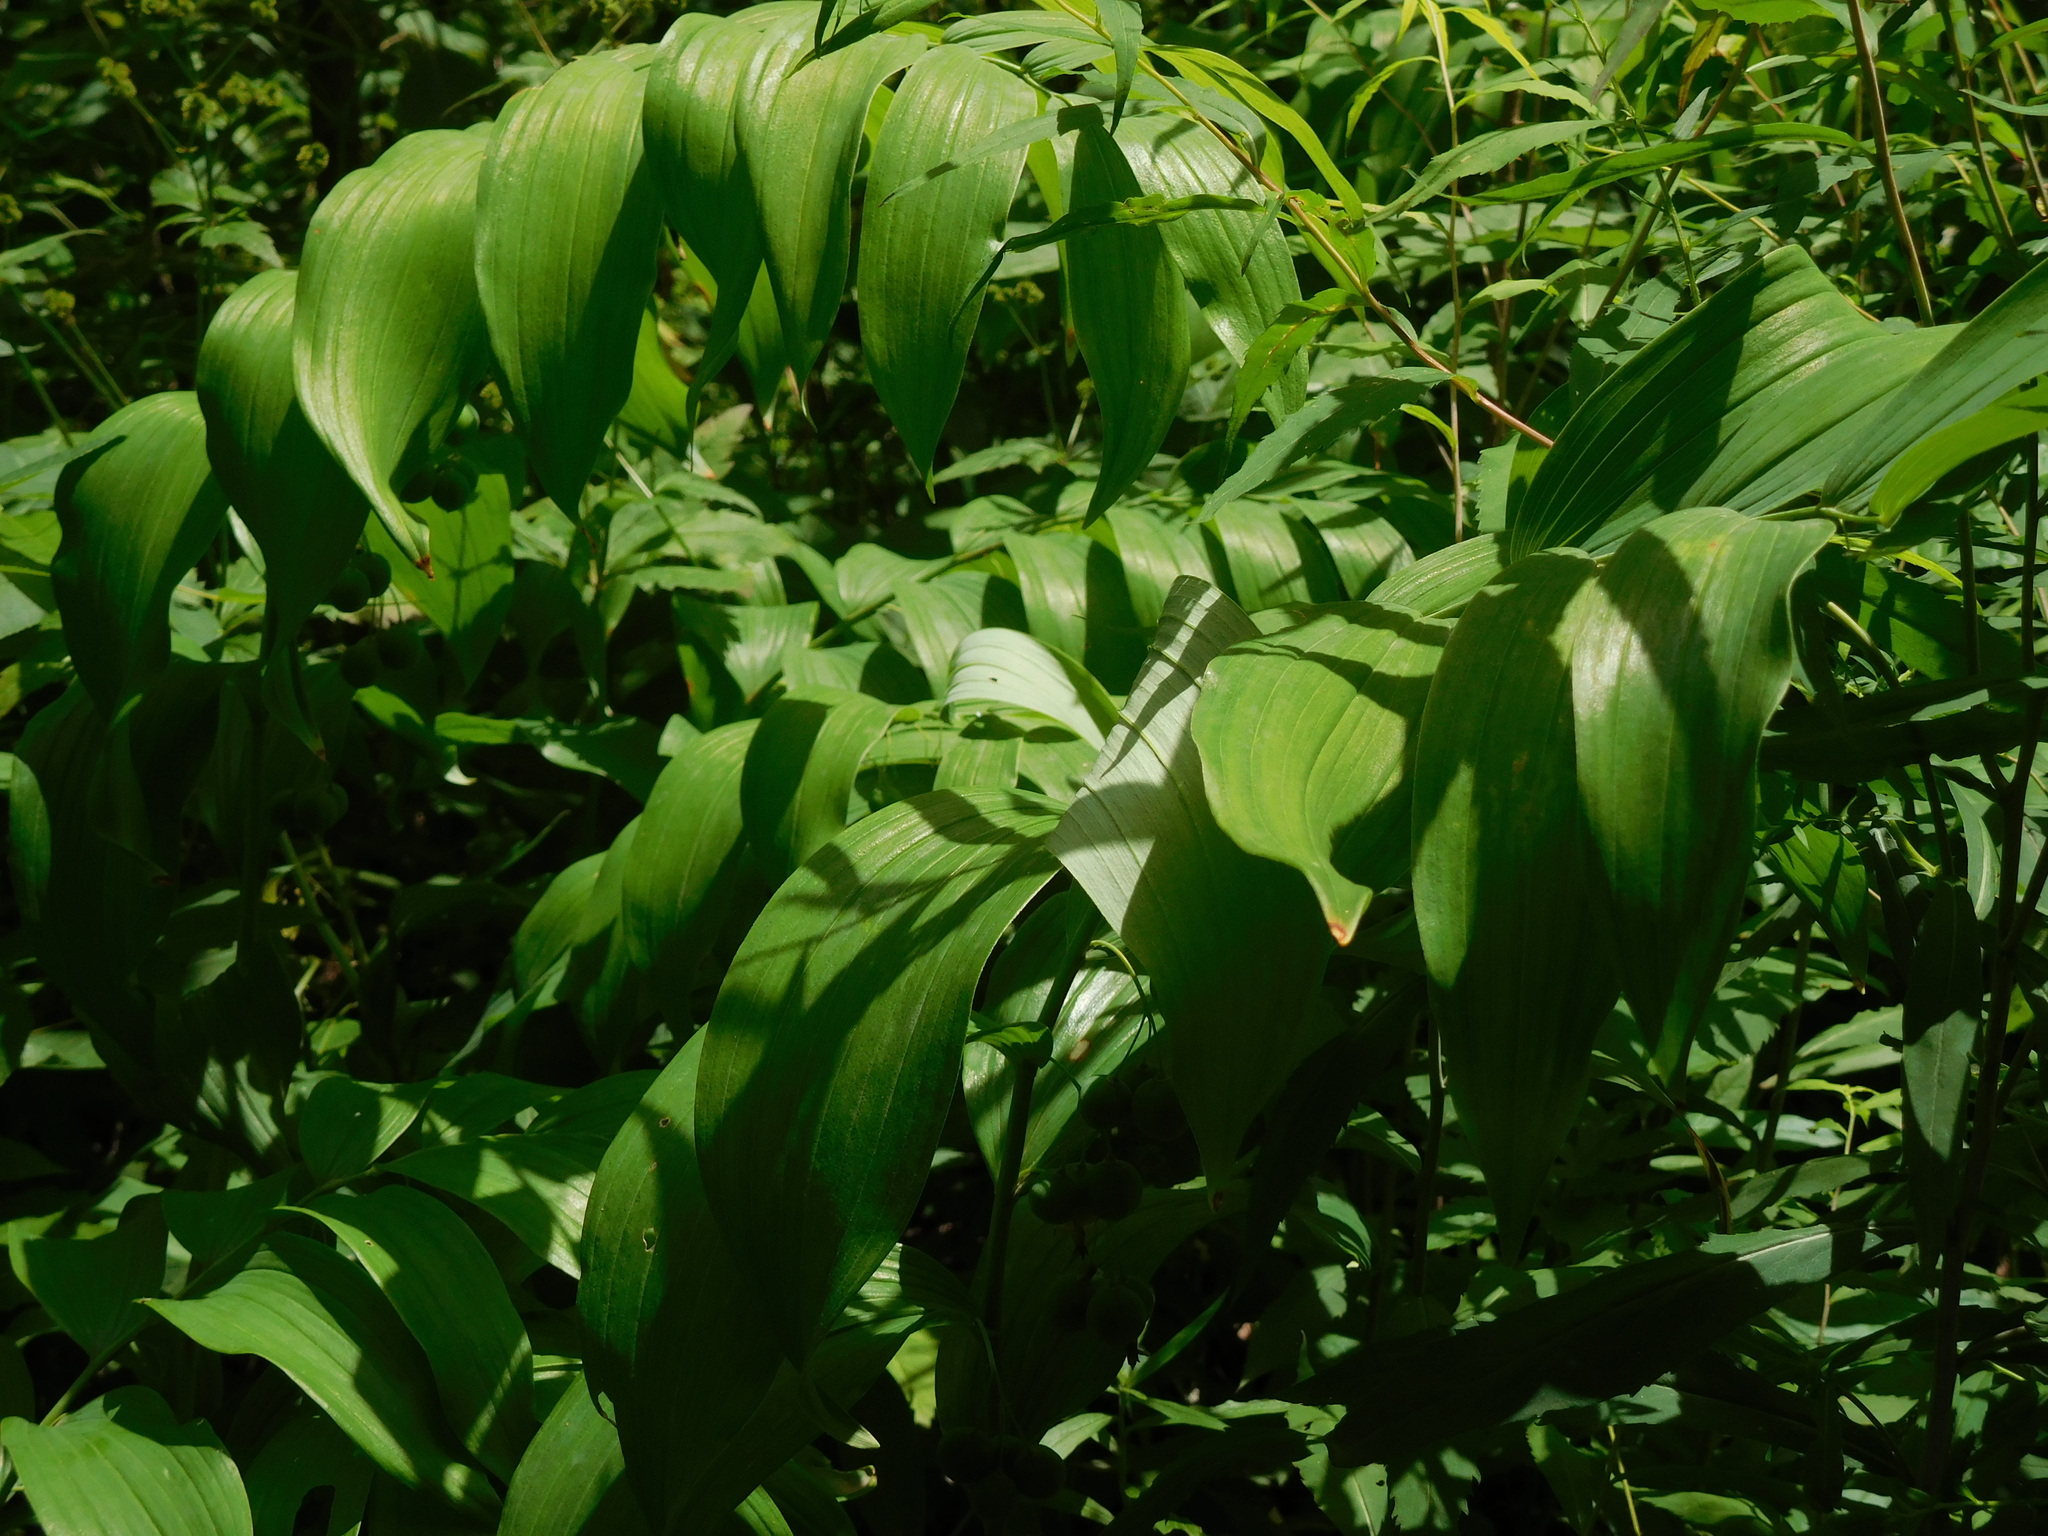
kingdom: Plantae
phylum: Tracheophyta
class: Liliopsida
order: Asparagales
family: Asparagaceae
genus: Polygonatum
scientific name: Polygonatum biflorum
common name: American solomon's-seal
